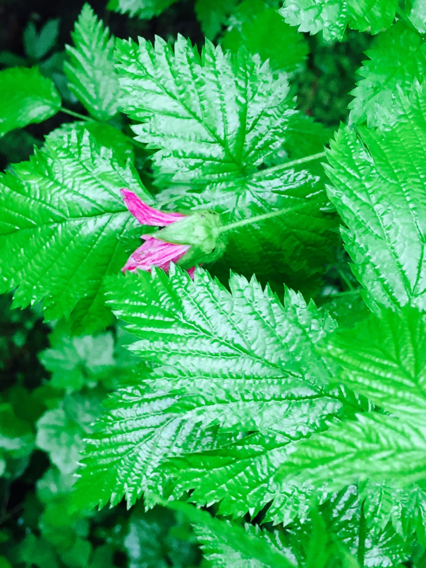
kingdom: Plantae
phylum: Tracheophyta
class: Magnoliopsida
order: Rosales
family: Rosaceae
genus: Rubus
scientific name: Rubus spectabilis
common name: Salmonberry
